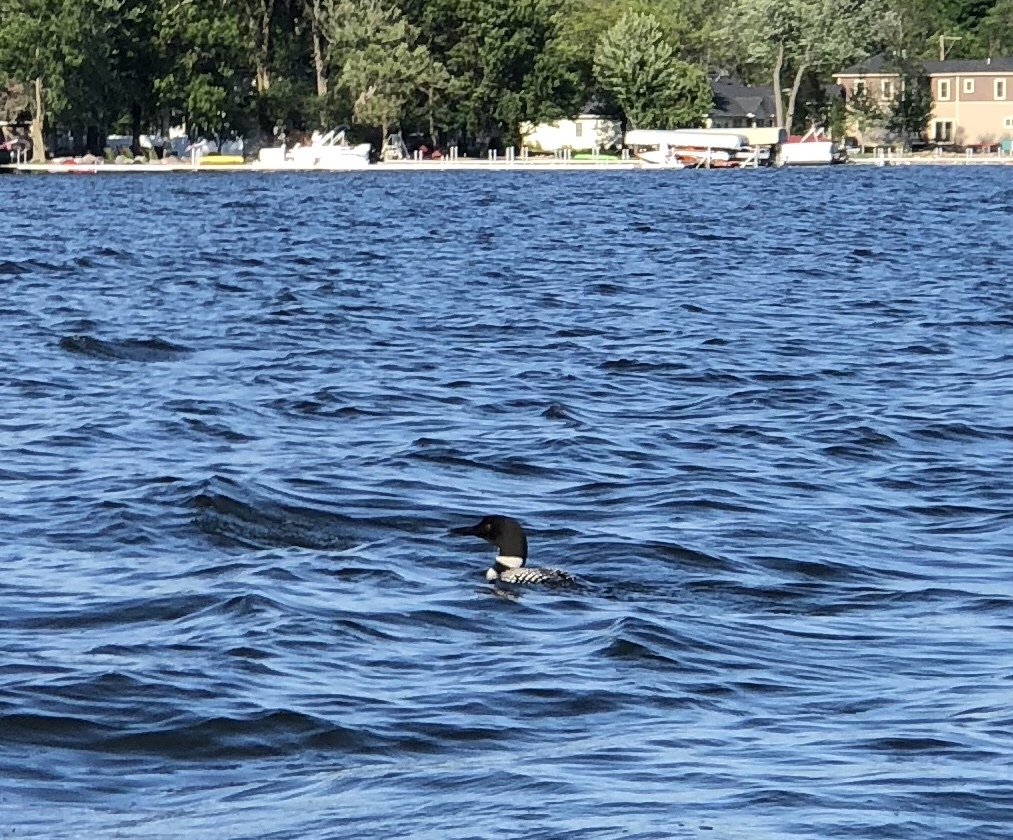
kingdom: Animalia
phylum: Chordata
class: Aves
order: Gaviiformes
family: Gaviidae
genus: Gavia
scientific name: Gavia immer
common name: Common loon
